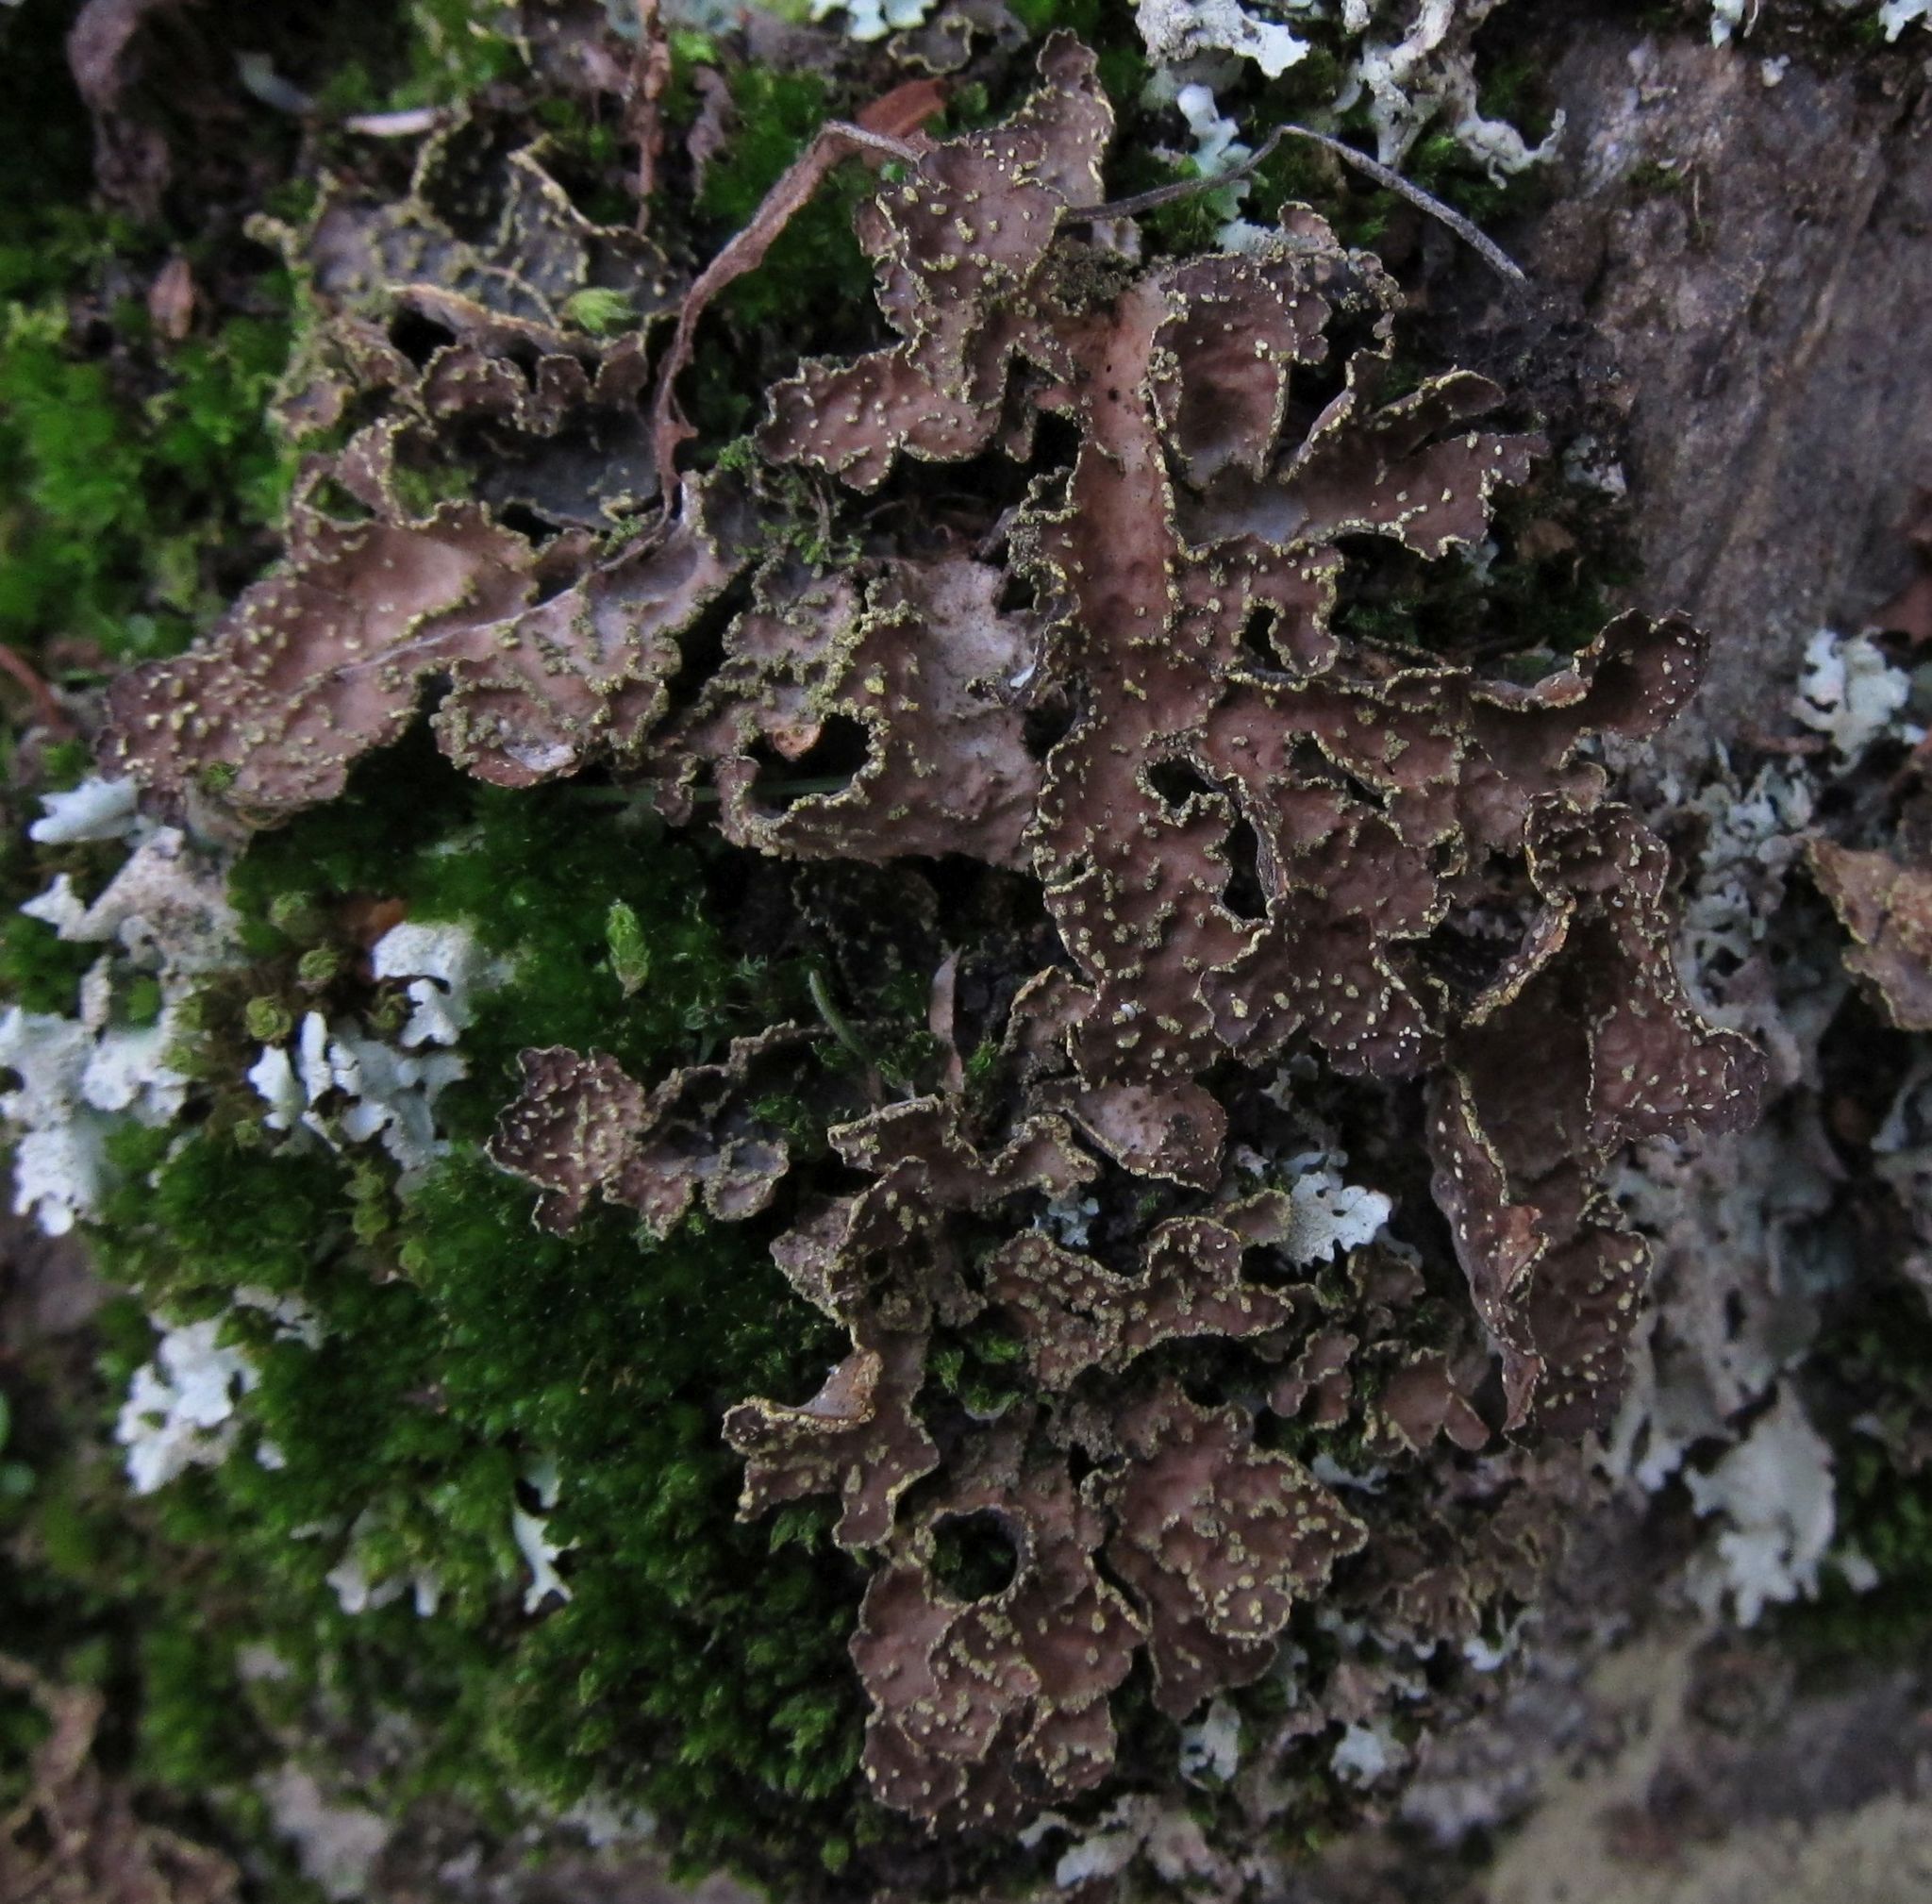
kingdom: Fungi
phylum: Ascomycota
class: Lecanoromycetes
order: Peltigerales
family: Lobariaceae
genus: Pseudocyphellaria
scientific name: Pseudocyphellaria crocata
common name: Golden specklebelly
